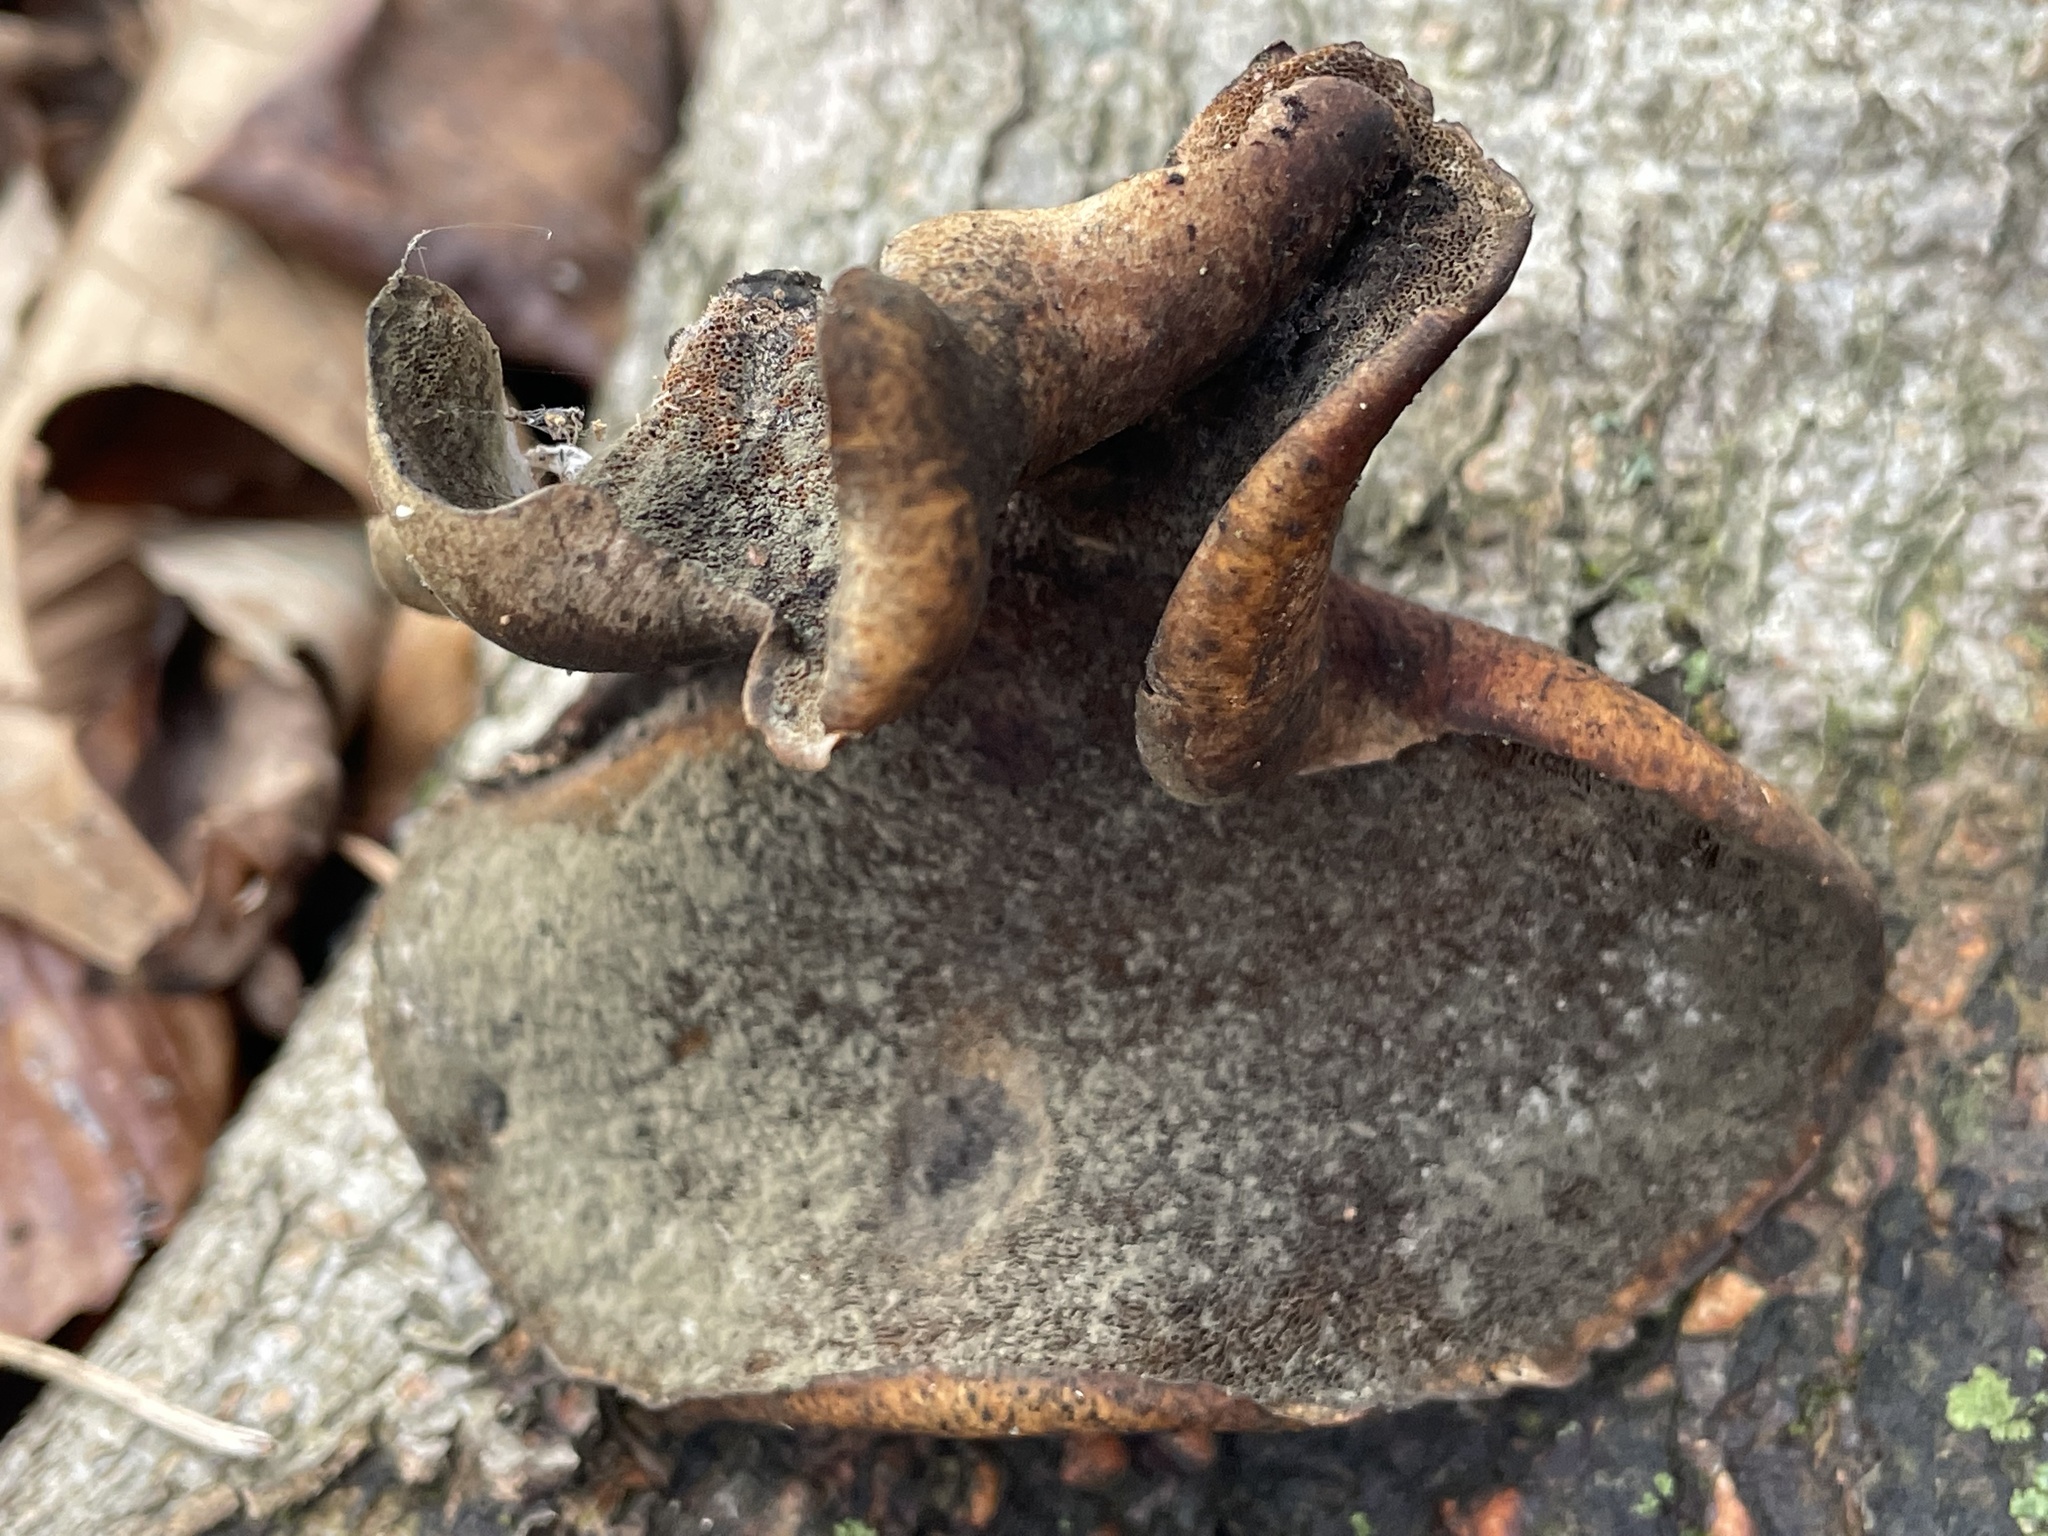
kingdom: Fungi
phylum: Basidiomycota
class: Agaricomycetes
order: Polyporales
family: Polyporaceae
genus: Picipes
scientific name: Picipes badius
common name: Bay polypore
